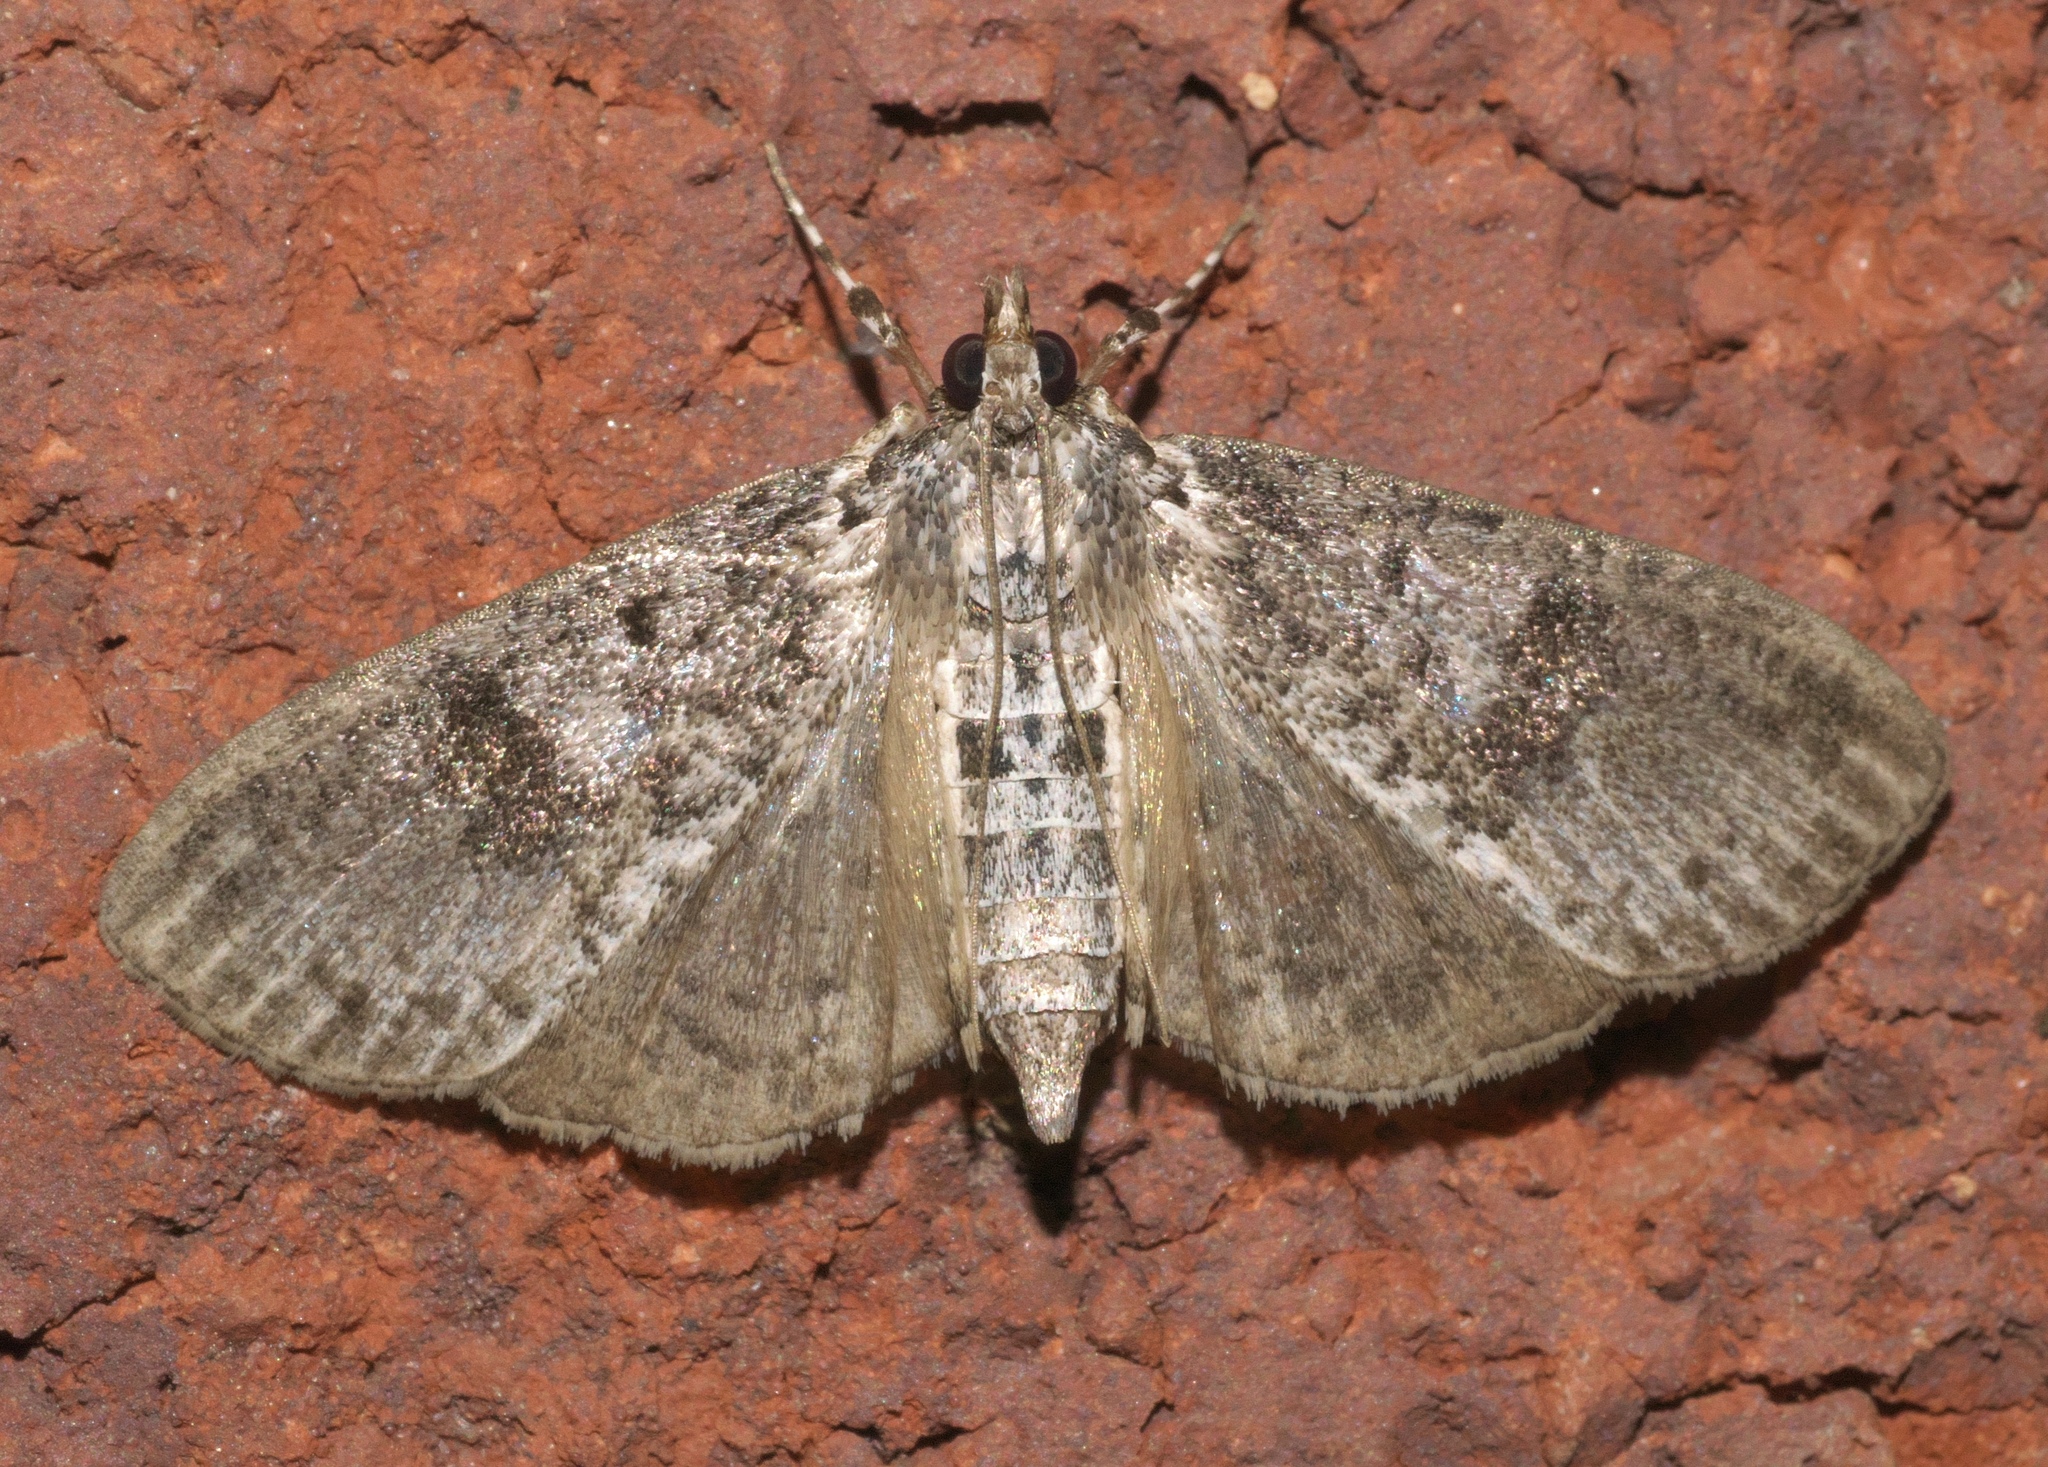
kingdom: Animalia
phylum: Arthropoda
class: Insecta
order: Lepidoptera
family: Crambidae
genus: Palpita
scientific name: Palpita magniferalis
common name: Splendid palpita moth
